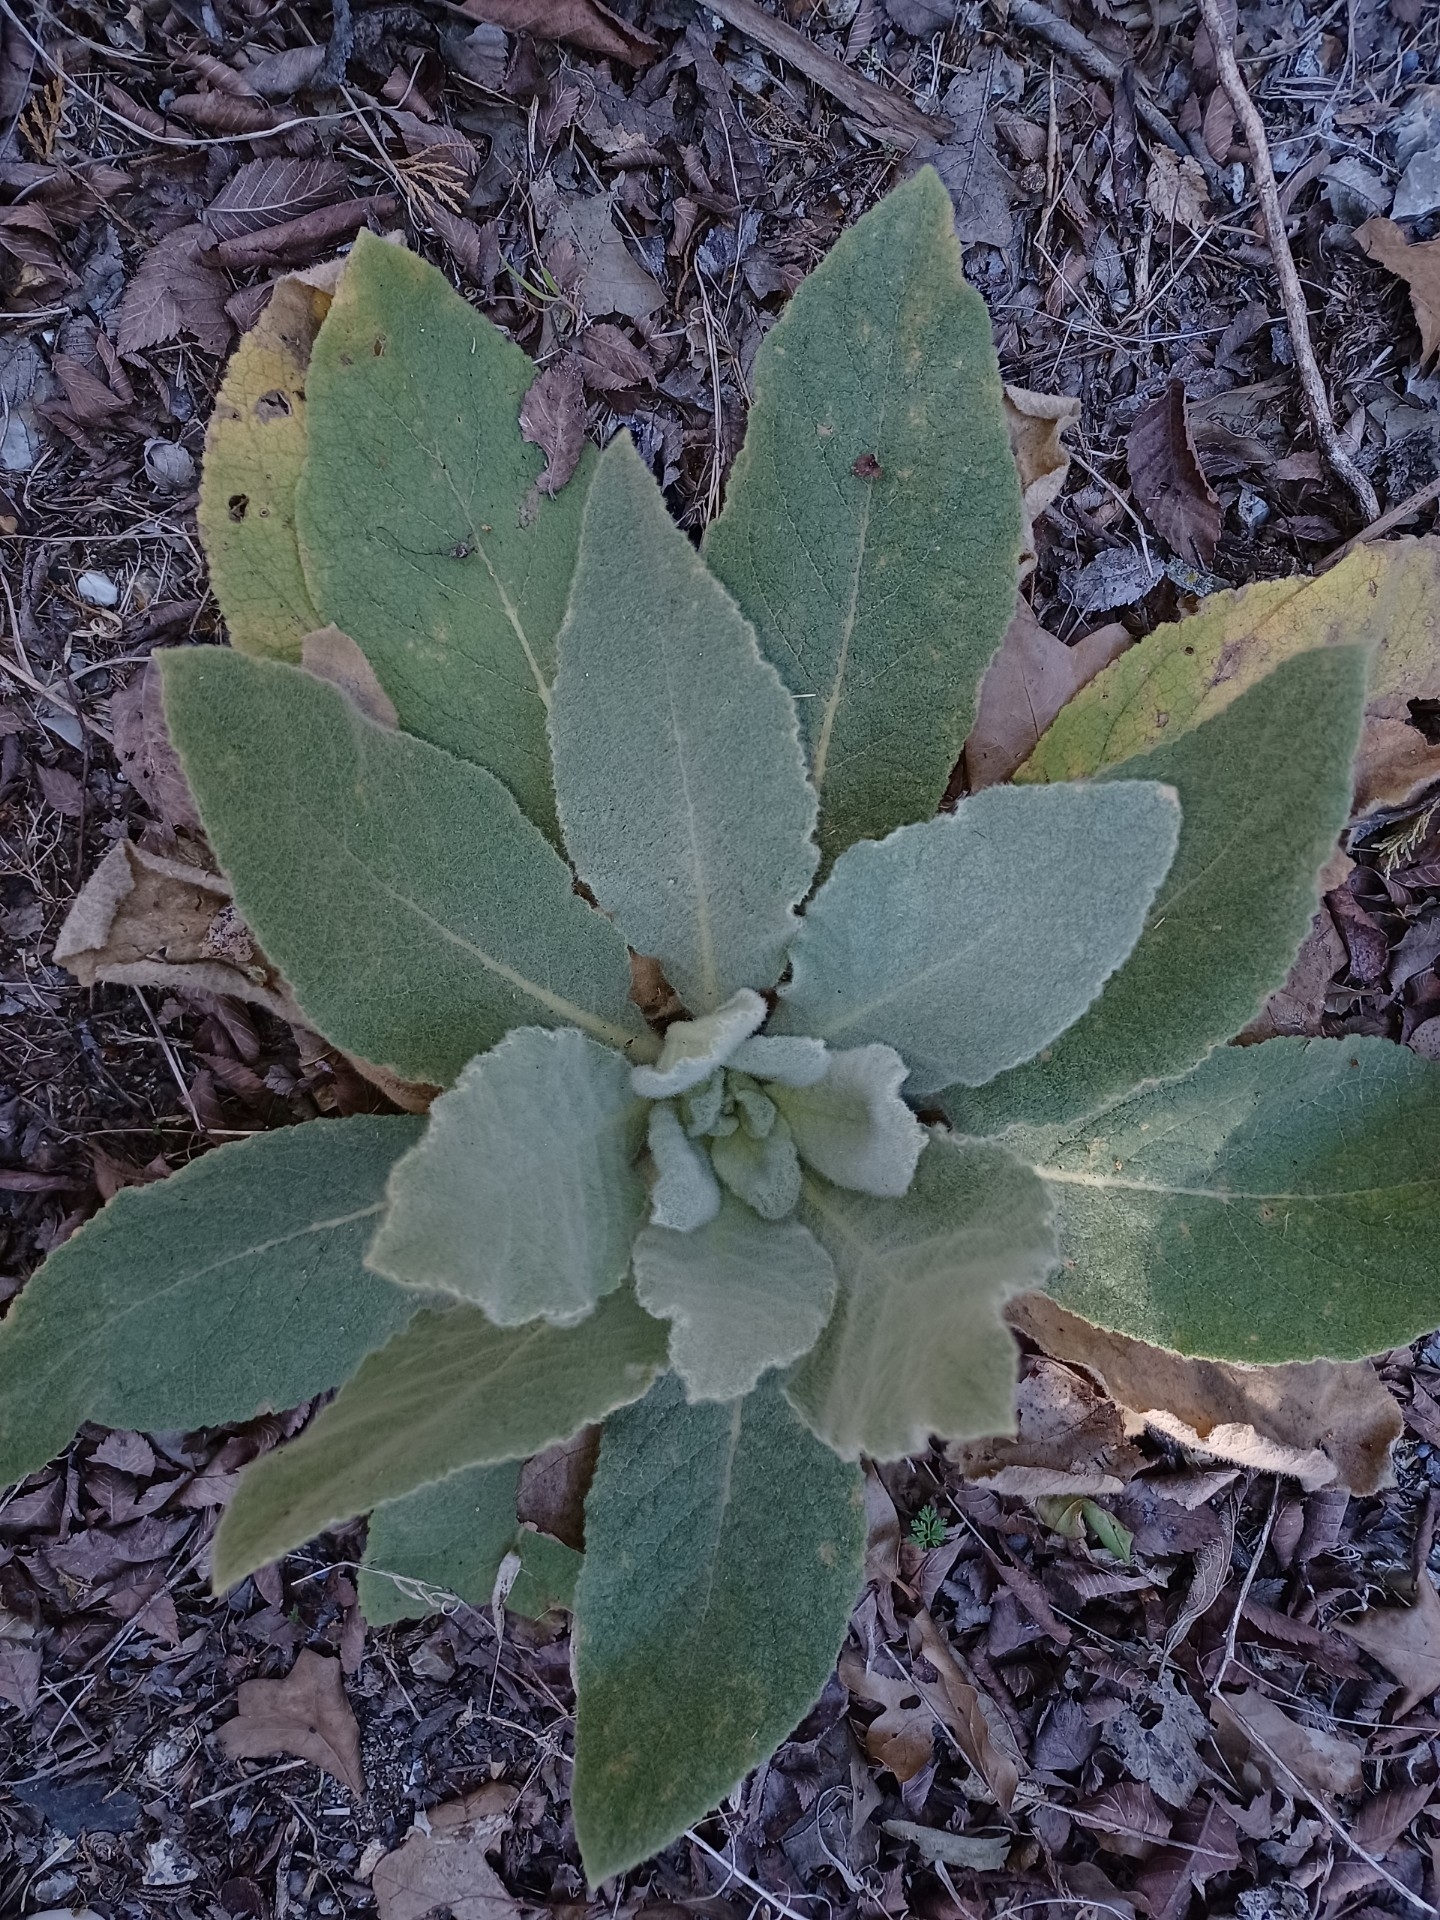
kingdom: Plantae
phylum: Tracheophyta
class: Magnoliopsida
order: Lamiales
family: Scrophulariaceae
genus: Verbascum
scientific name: Verbascum thapsus
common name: Common mullein
